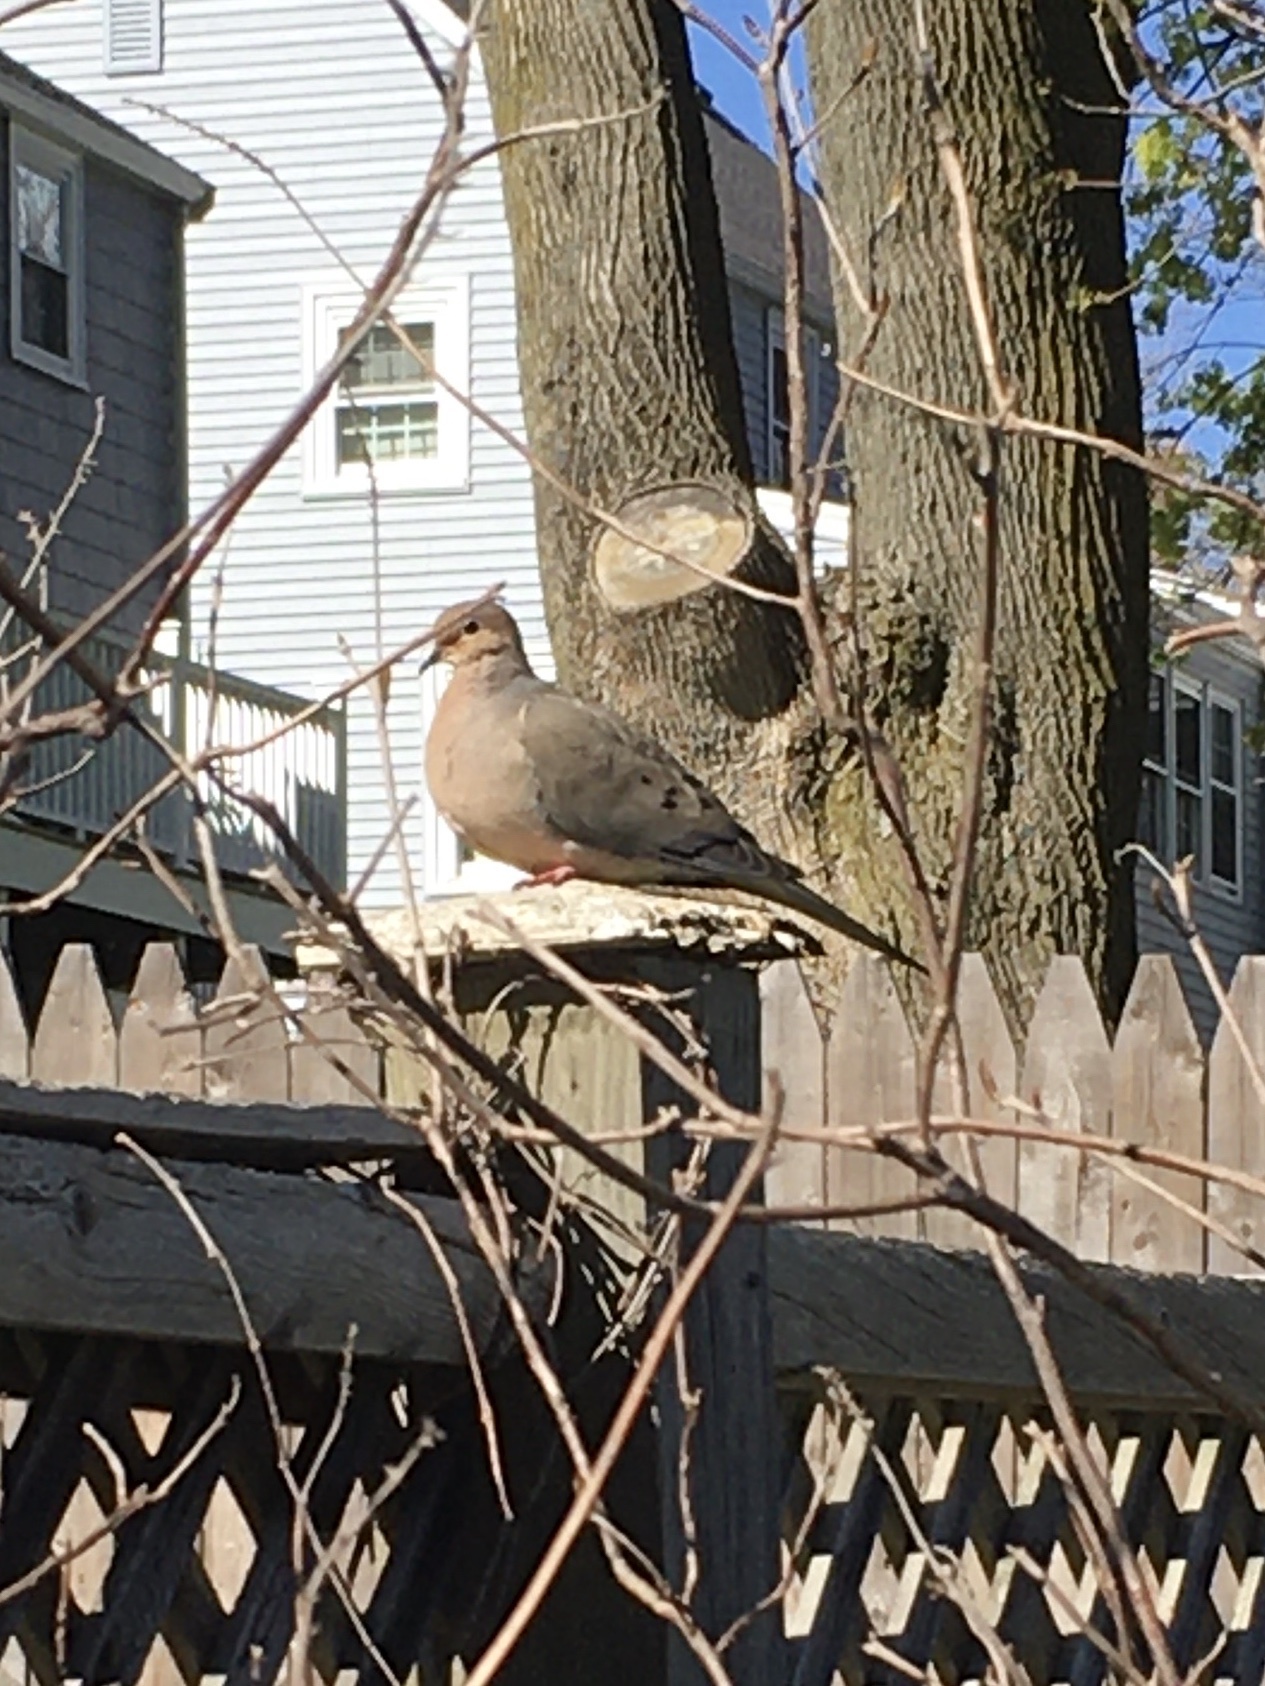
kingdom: Animalia
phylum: Chordata
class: Aves
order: Columbiformes
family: Columbidae
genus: Zenaida
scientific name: Zenaida macroura
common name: Mourning dove
